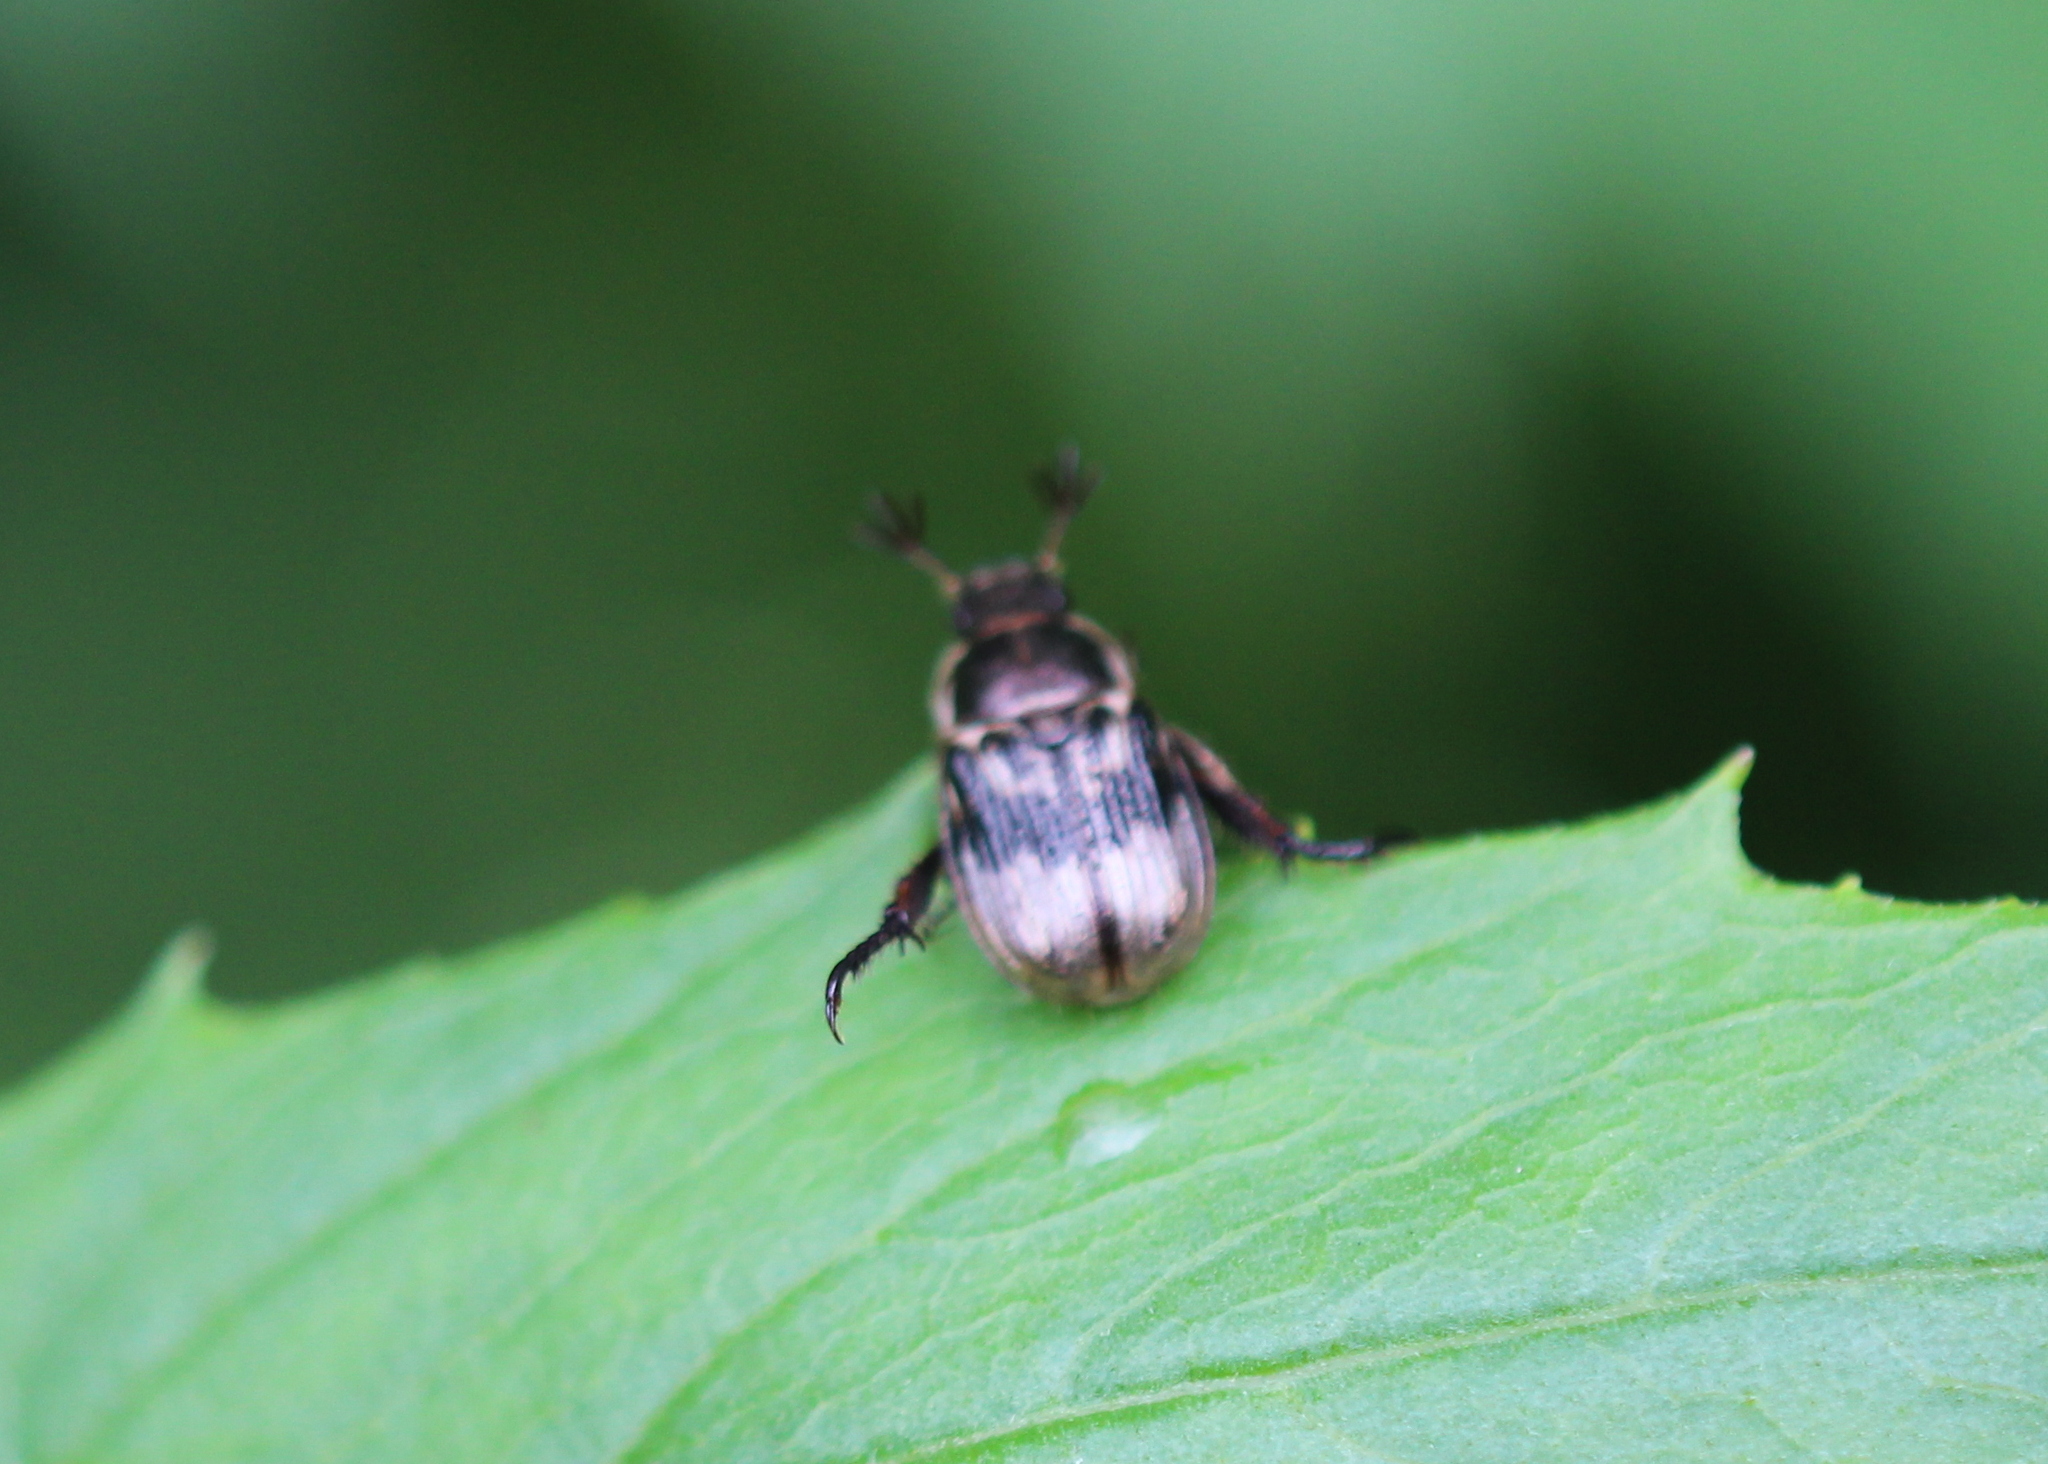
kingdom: Animalia
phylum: Arthropoda
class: Insecta
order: Coleoptera
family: Scarabaeidae
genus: Exomala
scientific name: Exomala orientalis
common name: Oriental beetle
